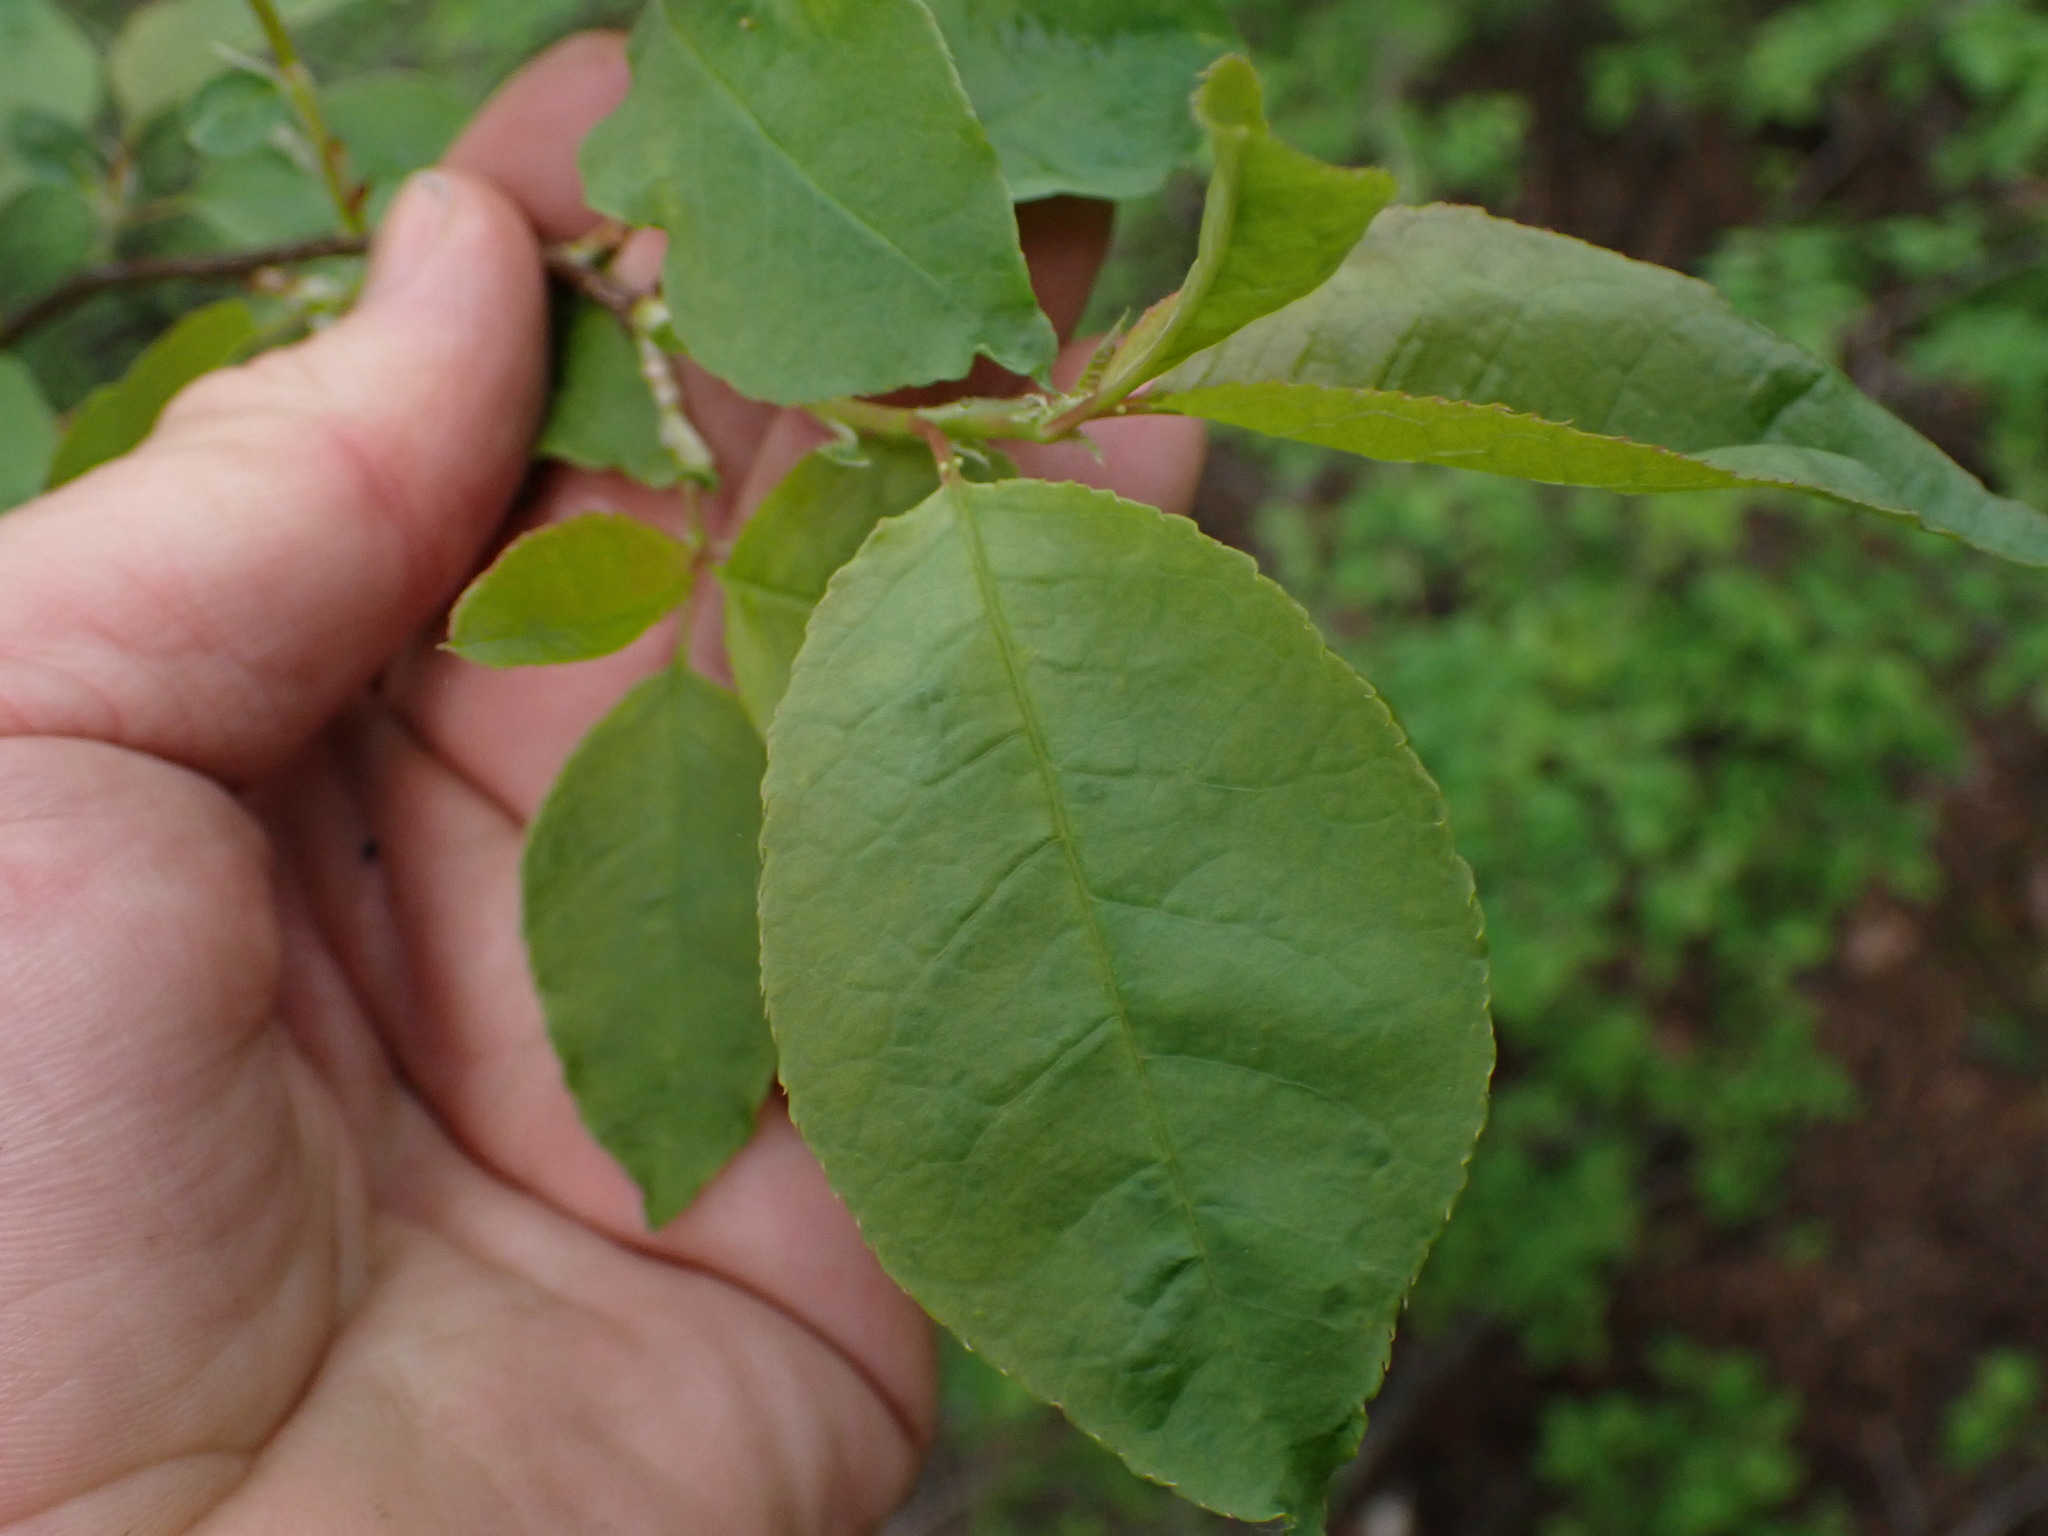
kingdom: Plantae
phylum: Tracheophyta
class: Magnoliopsida
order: Rosales
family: Rosaceae
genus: Prunus
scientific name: Prunus virginiana
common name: Chokecherry
